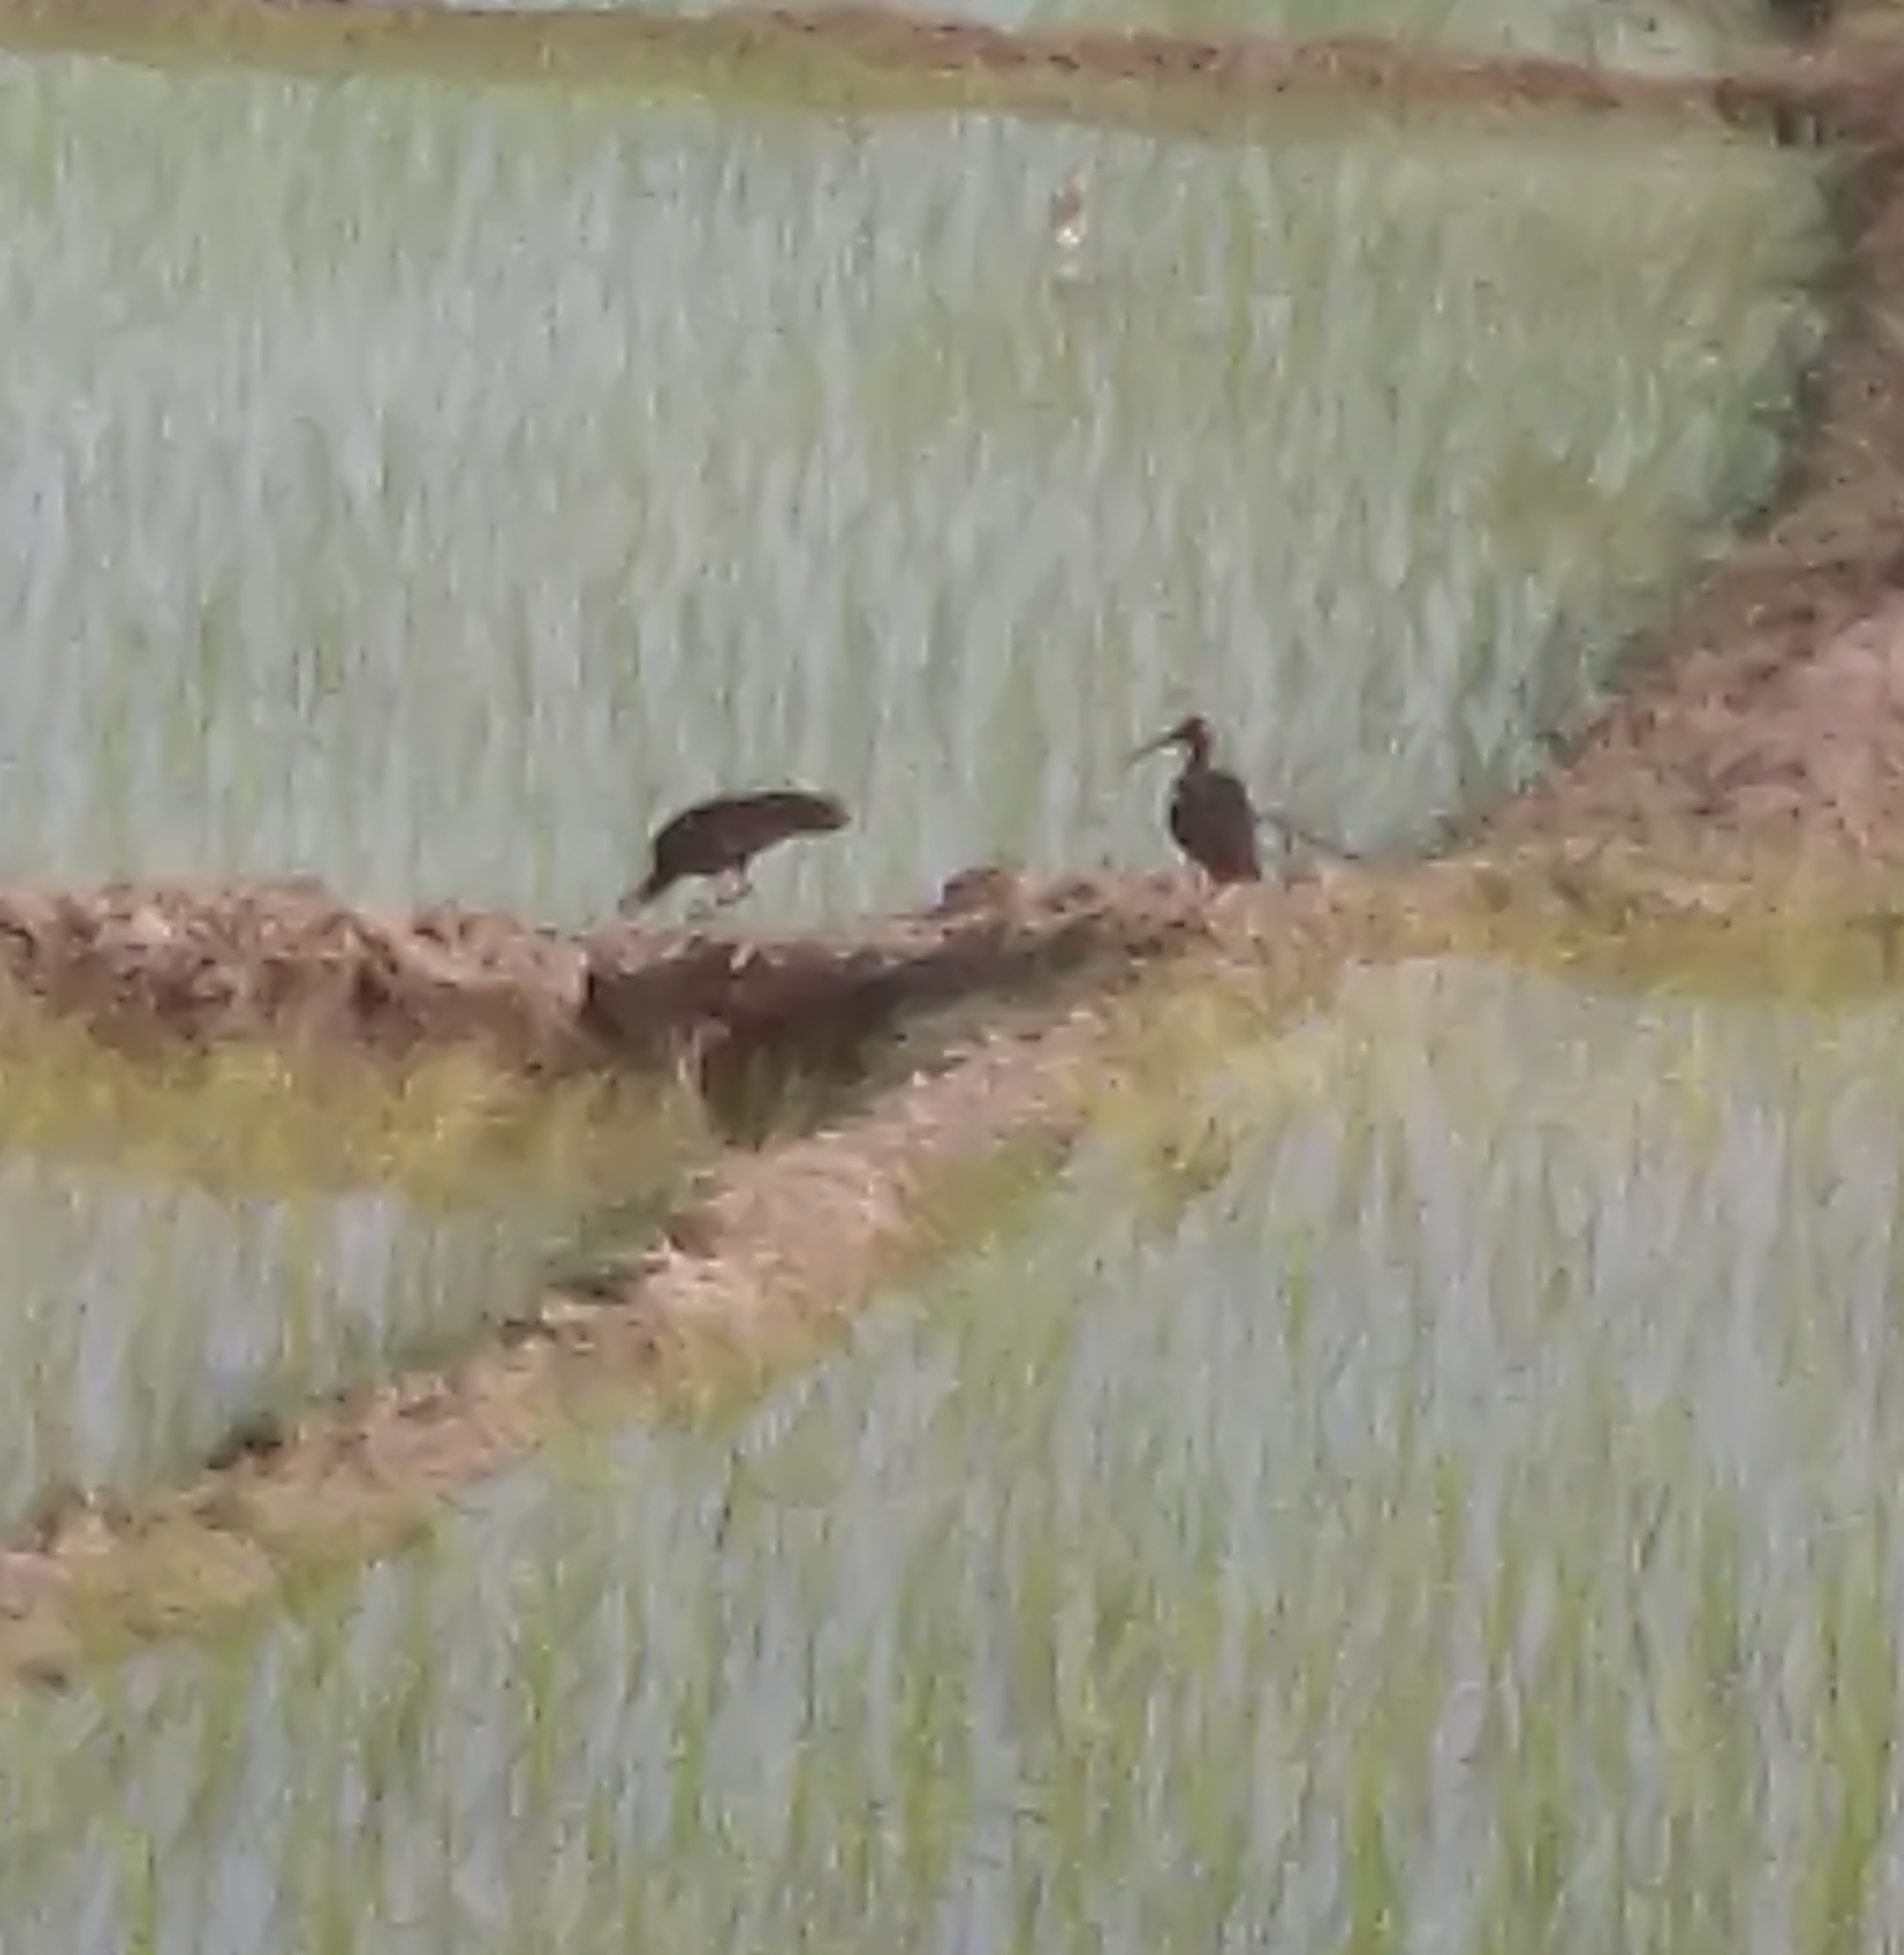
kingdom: Animalia
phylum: Chordata
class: Aves
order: Pelecaniformes
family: Threskiornithidae
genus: Pseudibis
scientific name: Pseudibis papillosa
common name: Red-naped ibis
